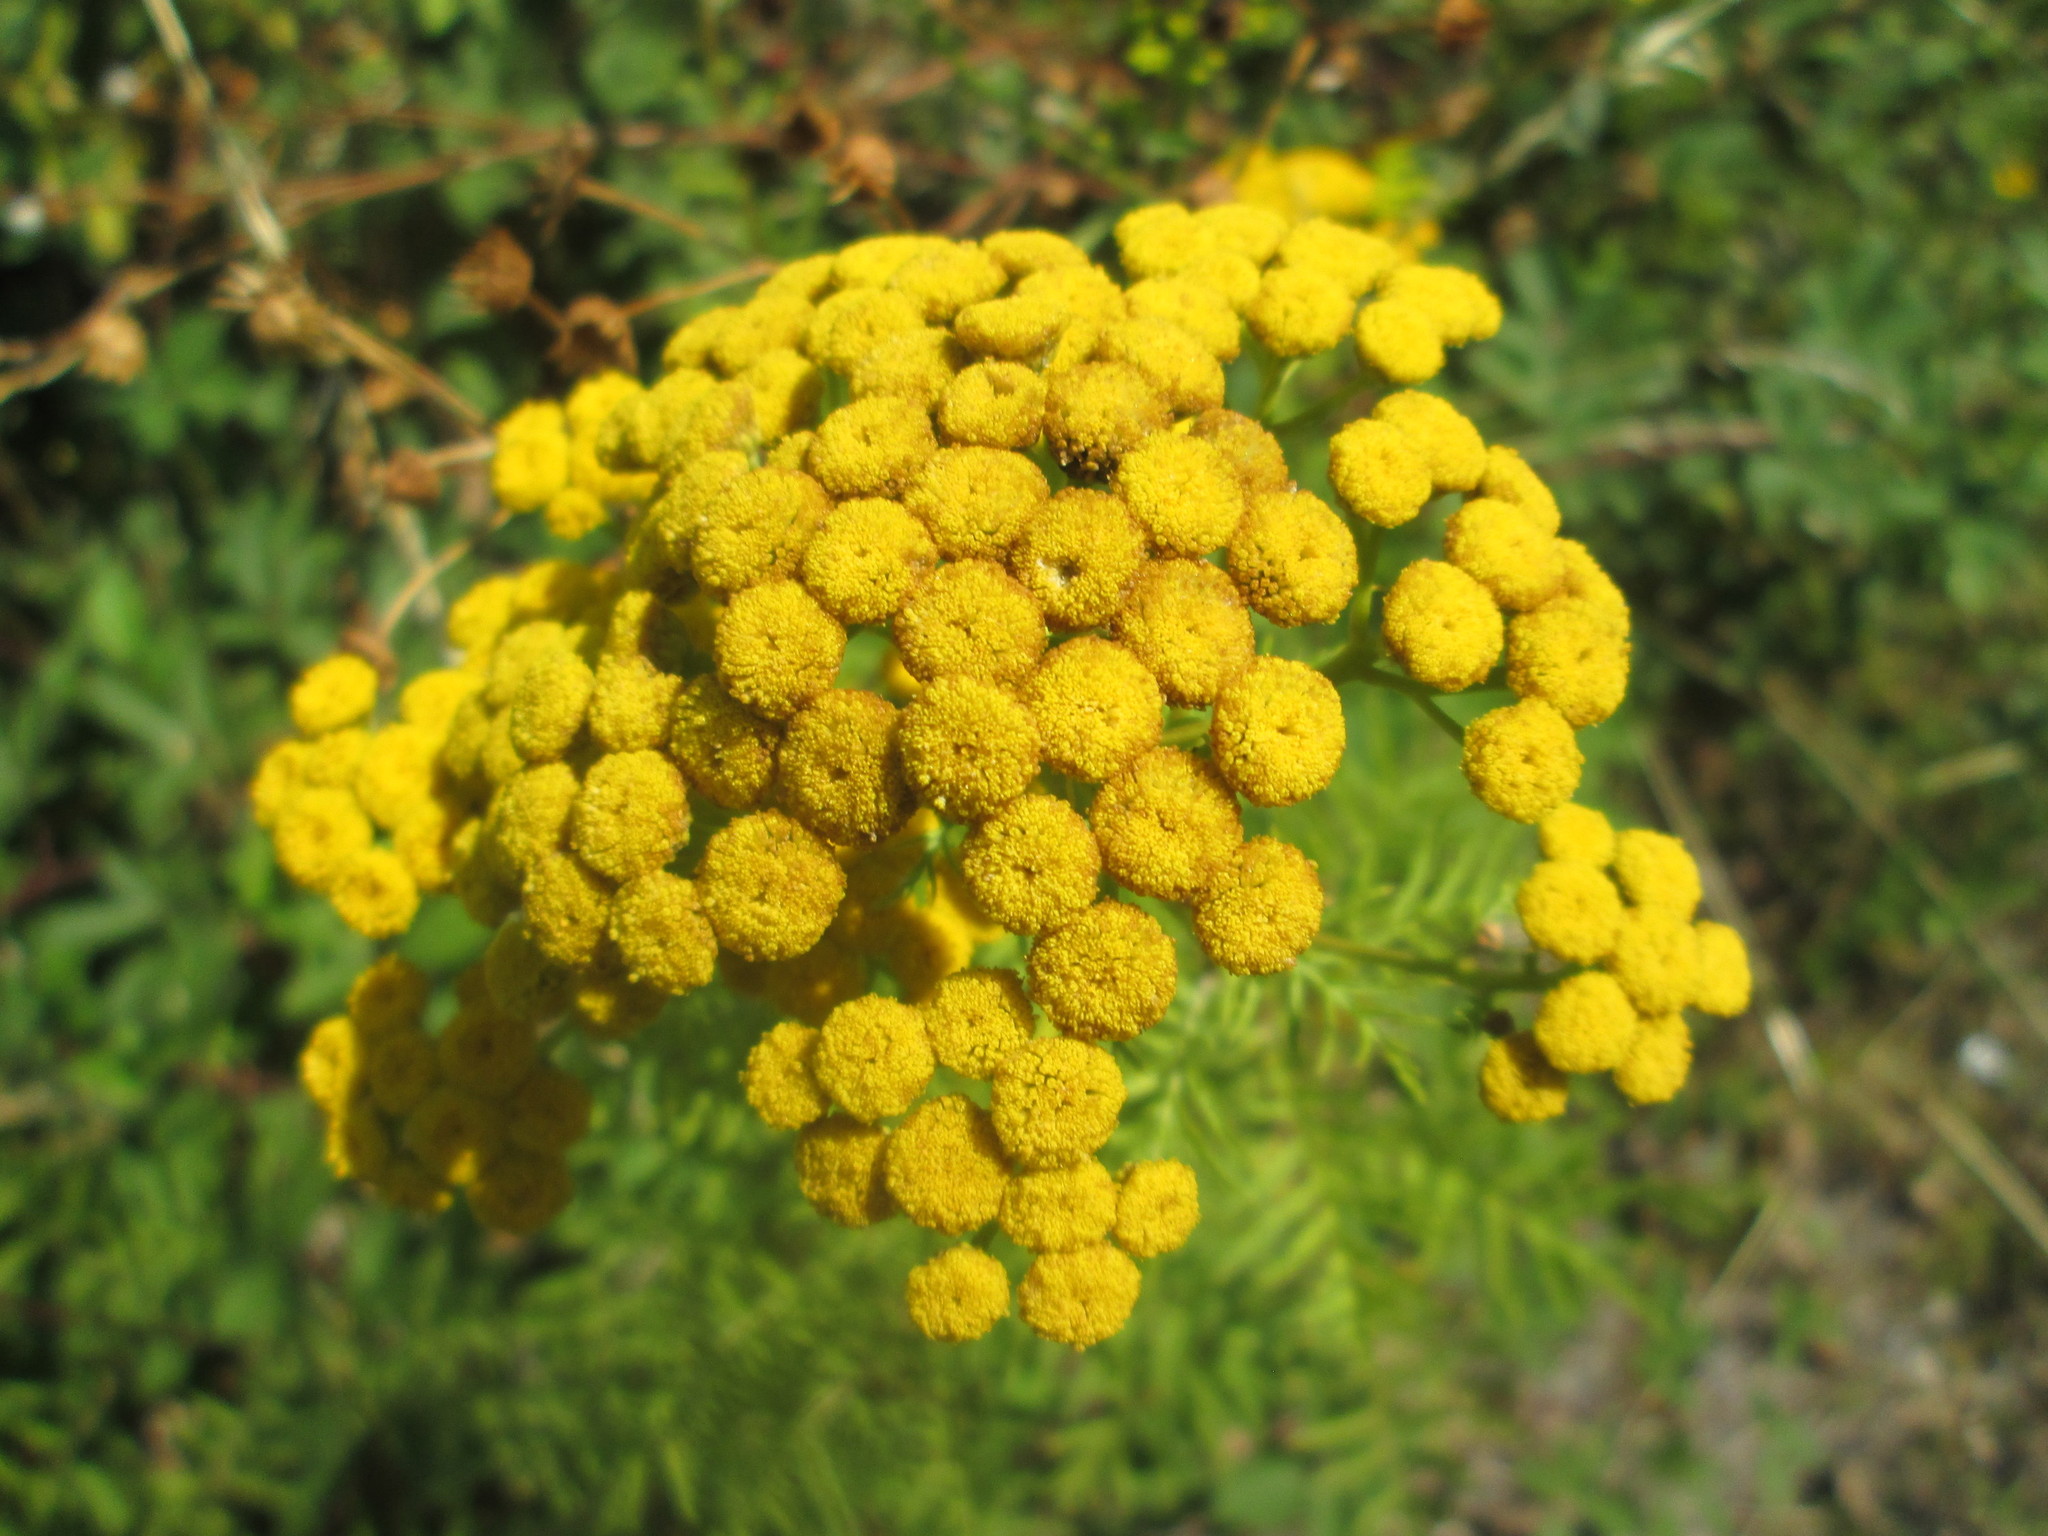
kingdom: Plantae
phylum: Tracheophyta
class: Magnoliopsida
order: Asterales
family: Asteraceae
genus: Tanacetum
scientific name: Tanacetum vulgare
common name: Common tansy
